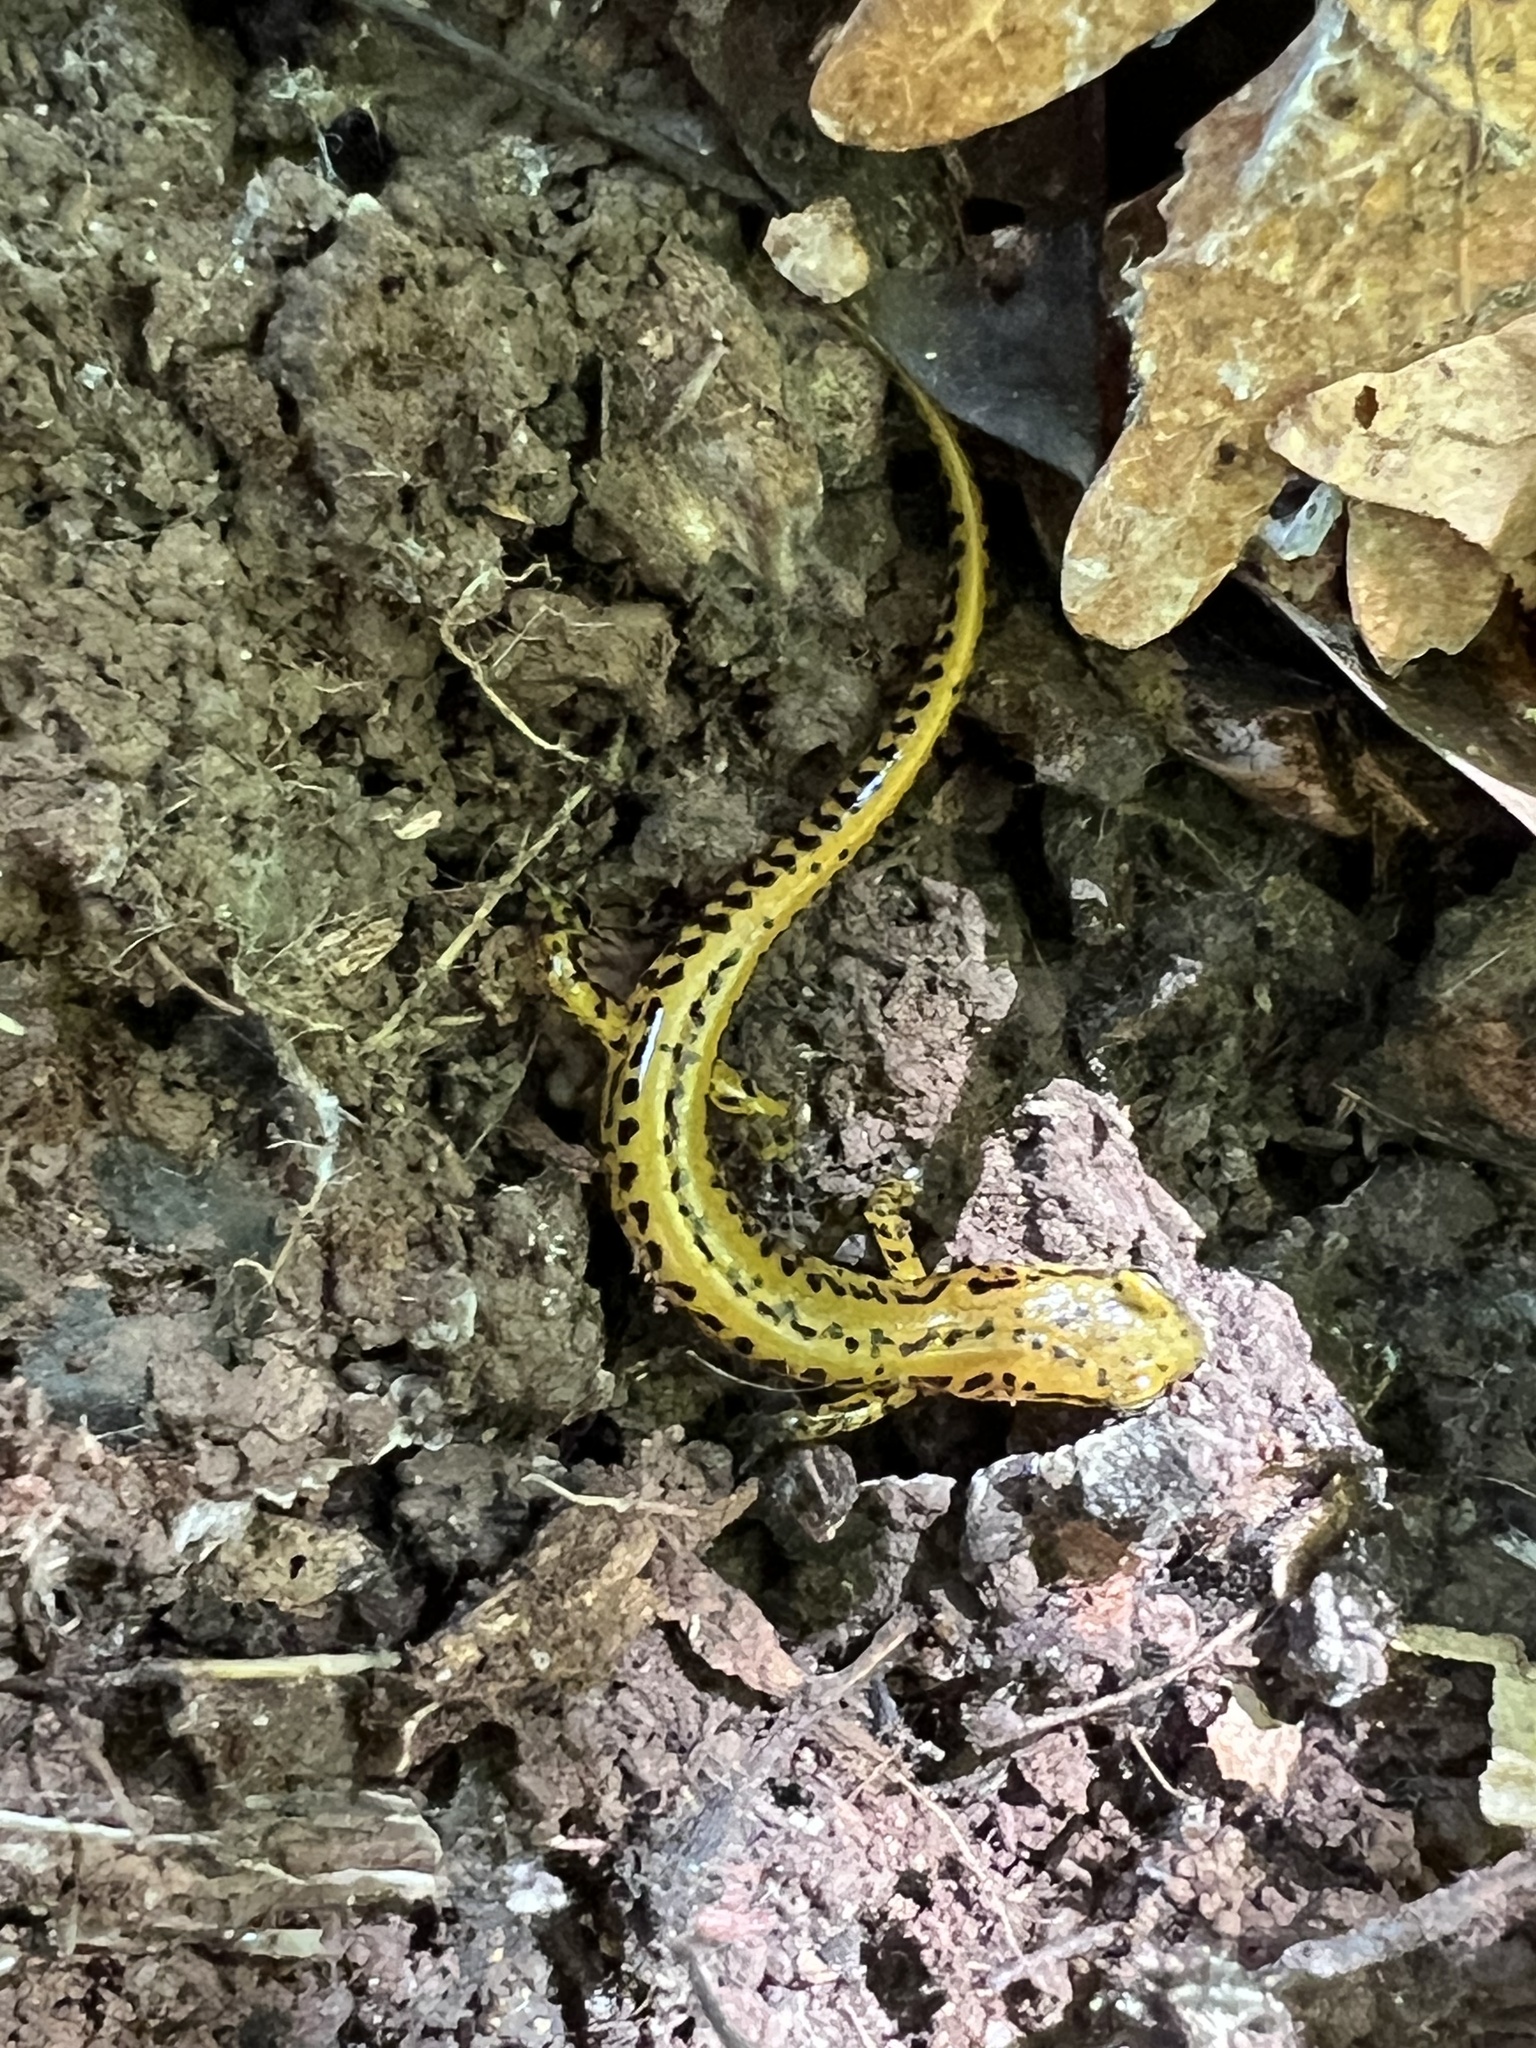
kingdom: Animalia
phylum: Chordata
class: Amphibia
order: Caudata
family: Plethodontidae
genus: Eurycea
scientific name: Eurycea longicauda
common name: Long-tailed salamander
